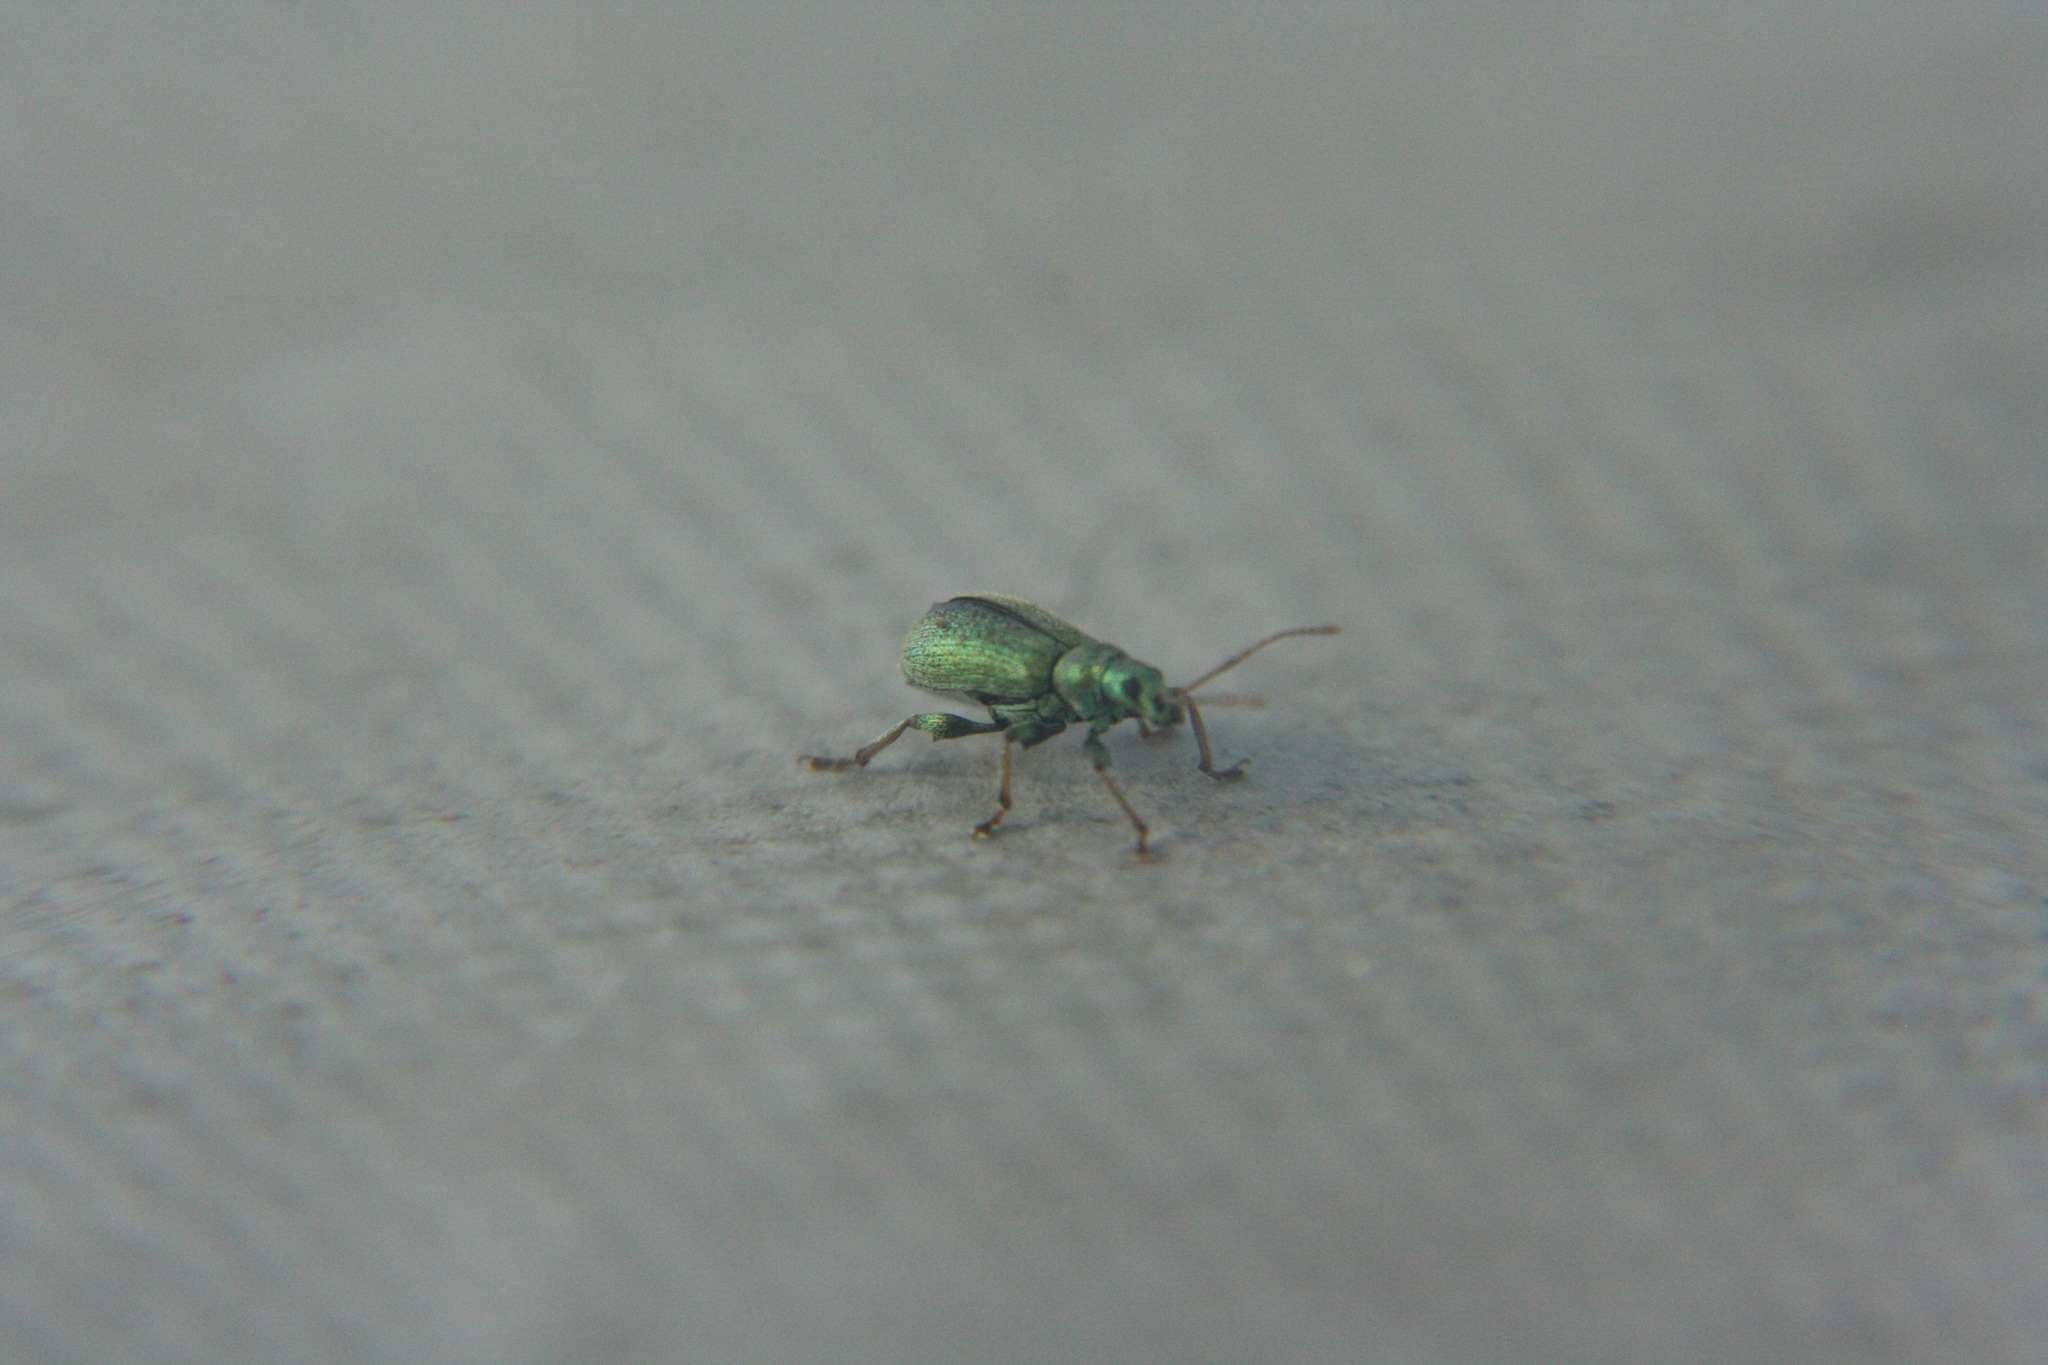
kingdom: Animalia
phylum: Arthropoda
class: Insecta
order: Coleoptera
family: Curculionidae
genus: Phyllobius
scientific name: Phyllobius argentatus
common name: Silver-green leaf weevil
